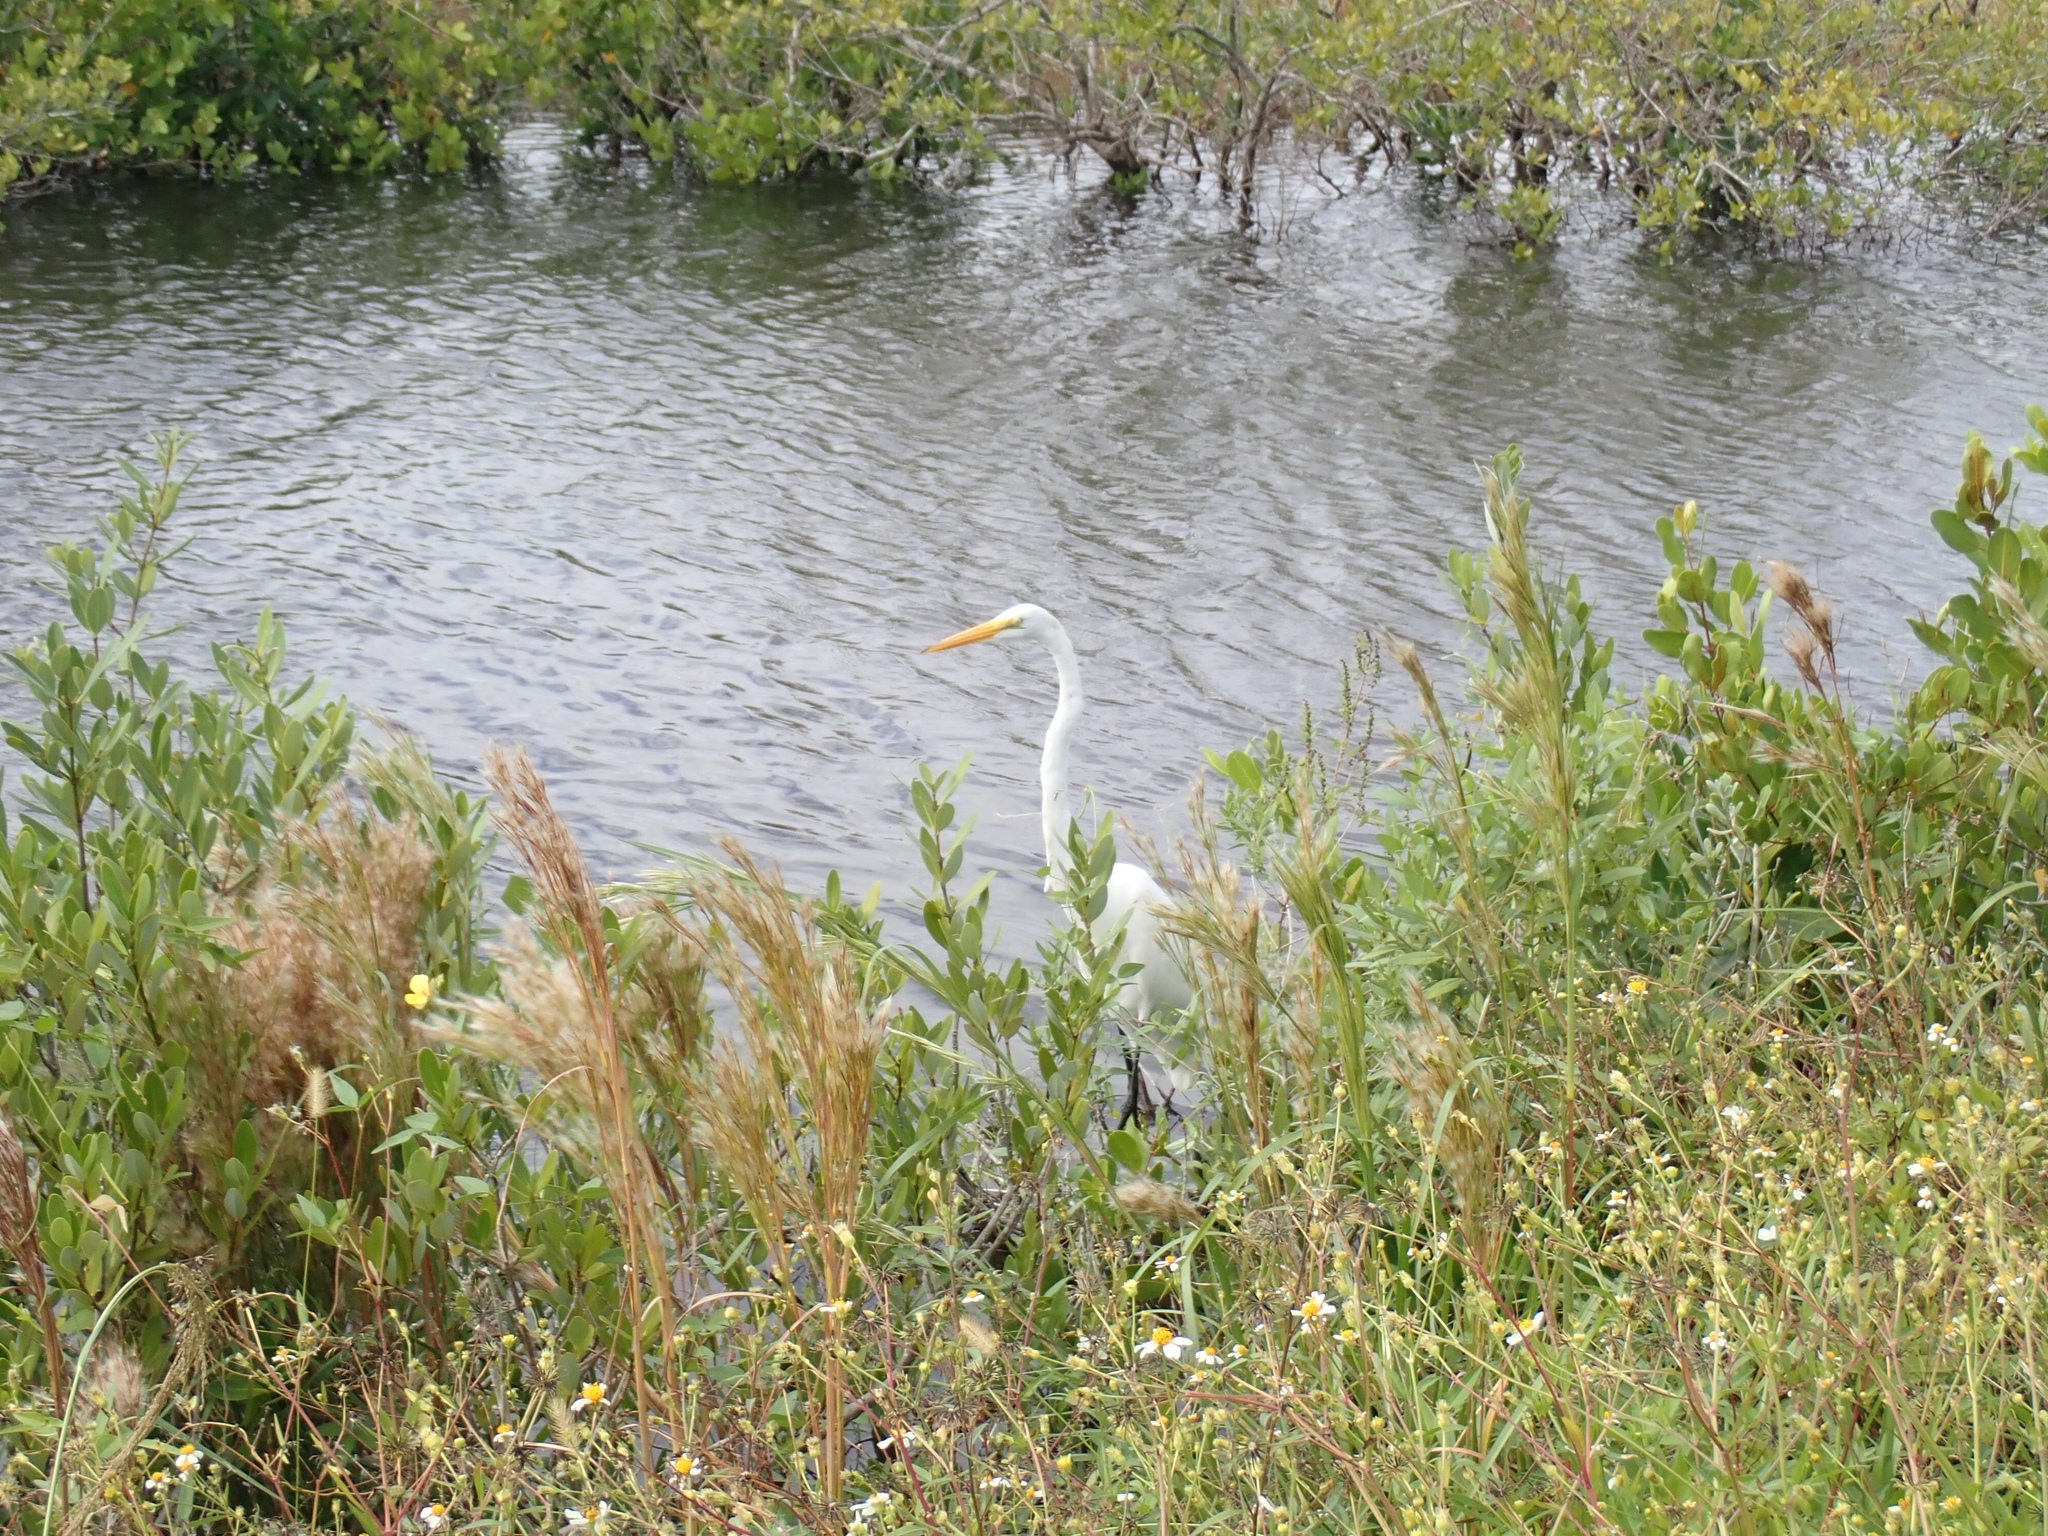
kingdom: Animalia
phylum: Chordata
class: Aves
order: Pelecaniformes
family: Ardeidae
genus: Ardea
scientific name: Ardea alba
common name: Great egret
